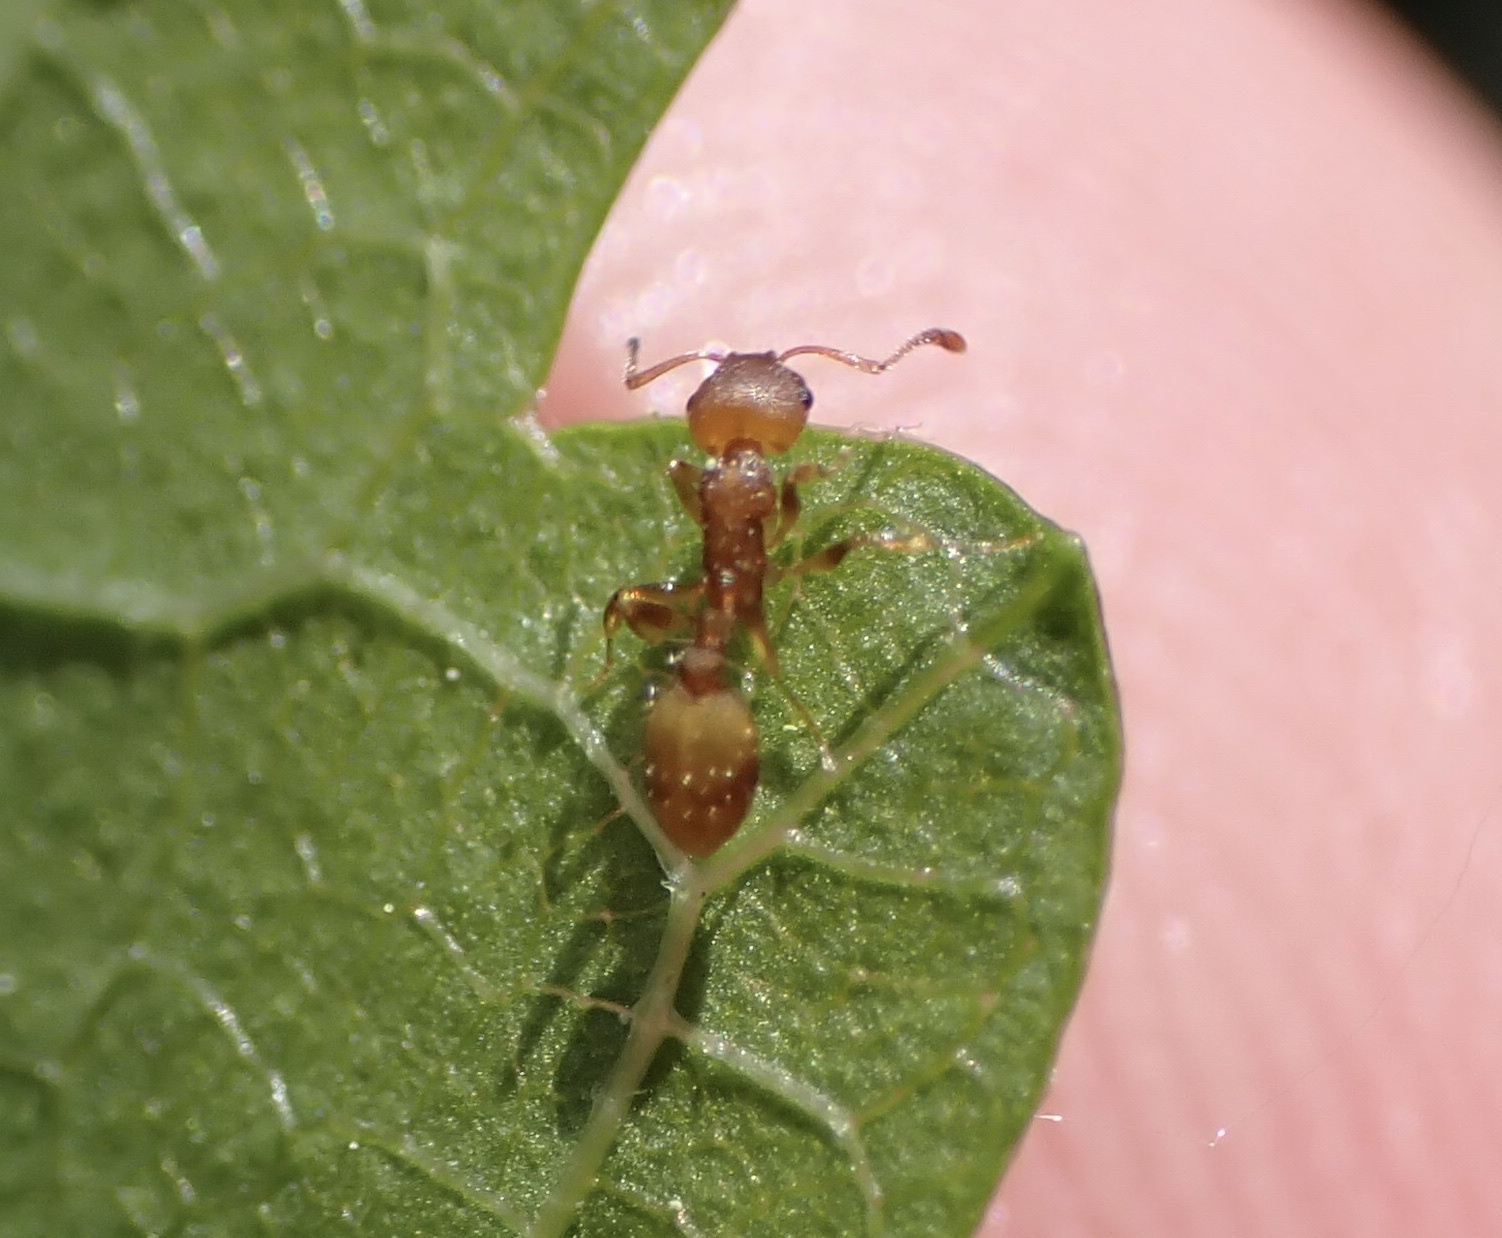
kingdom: Animalia
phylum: Arthropoda
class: Insecta
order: Hymenoptera
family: Formicidae
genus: Temnothorax
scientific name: Temnothorax curvispinosus
